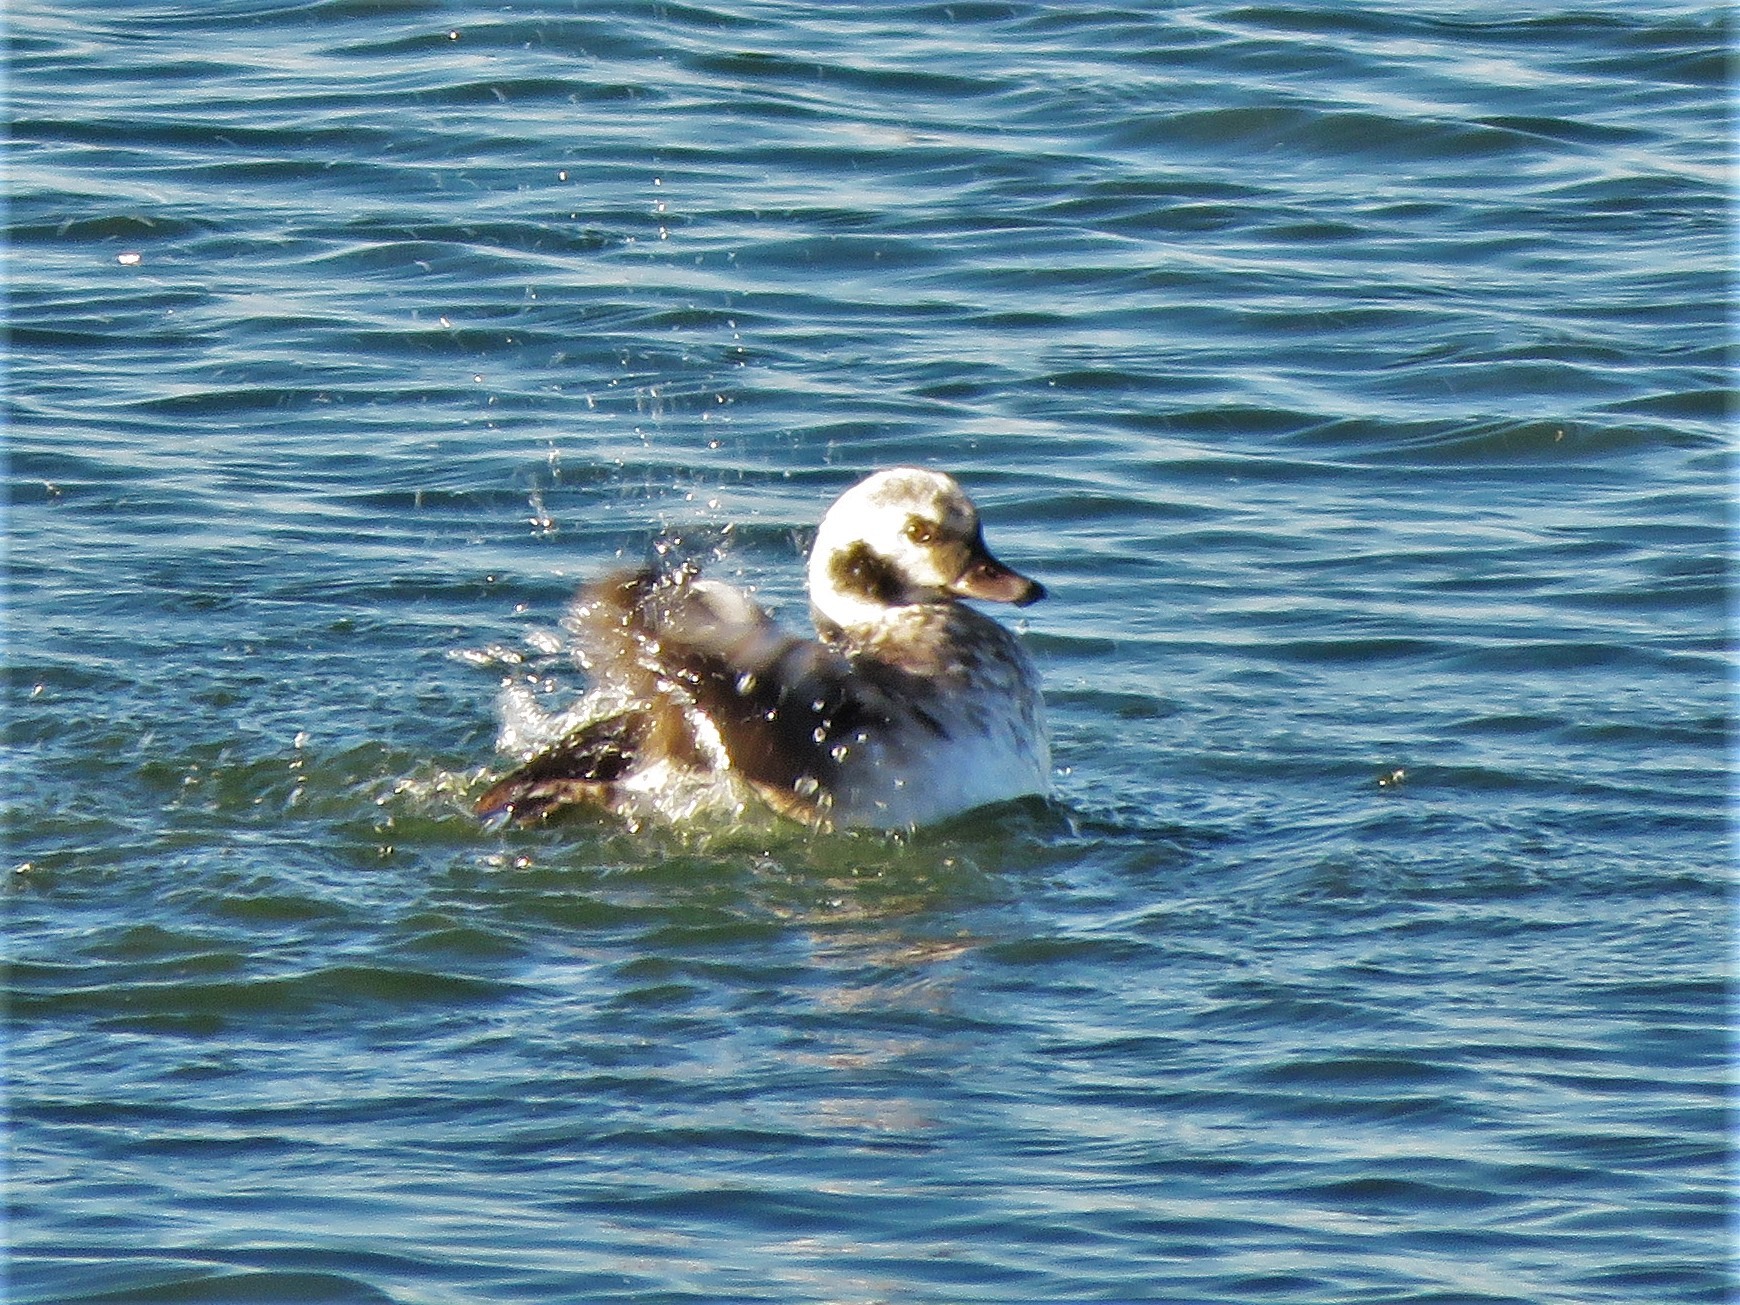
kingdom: Animalia
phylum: Chordata
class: Aves
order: Anseriformes
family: Anatidae
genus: Clangula
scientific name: Clangula hyemalis
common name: Long-tailed duck
